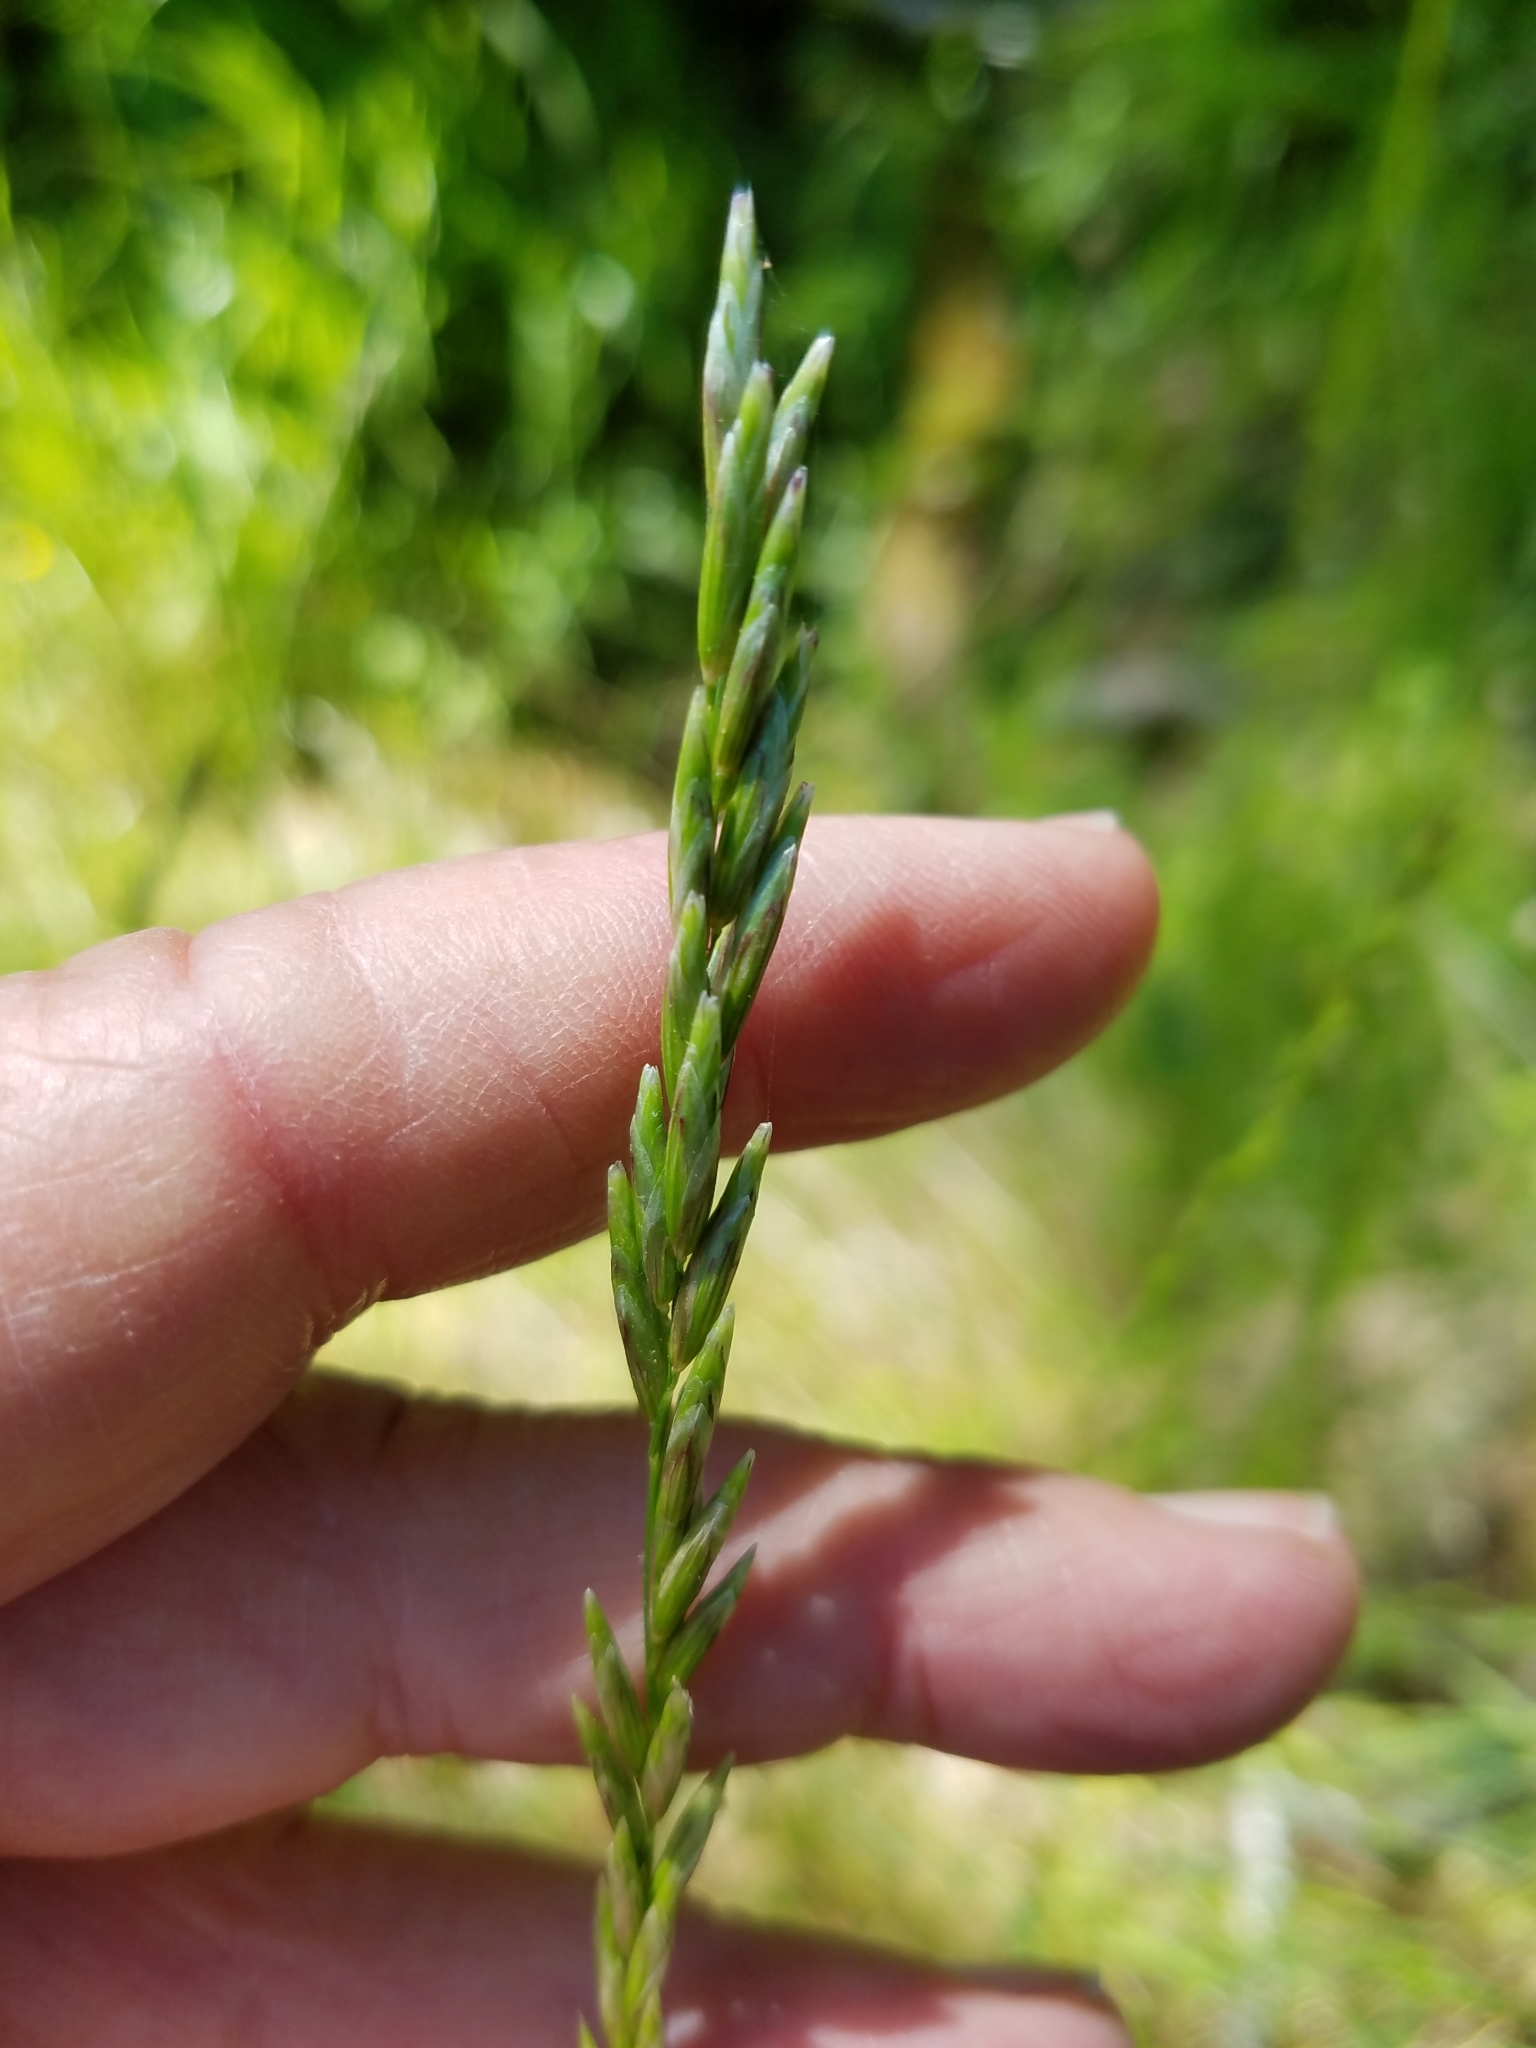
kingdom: Plantae
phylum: Tracheophyta
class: Liliopsida
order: Poales
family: Poaceae
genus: Melica
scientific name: Melica californica
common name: California melic
